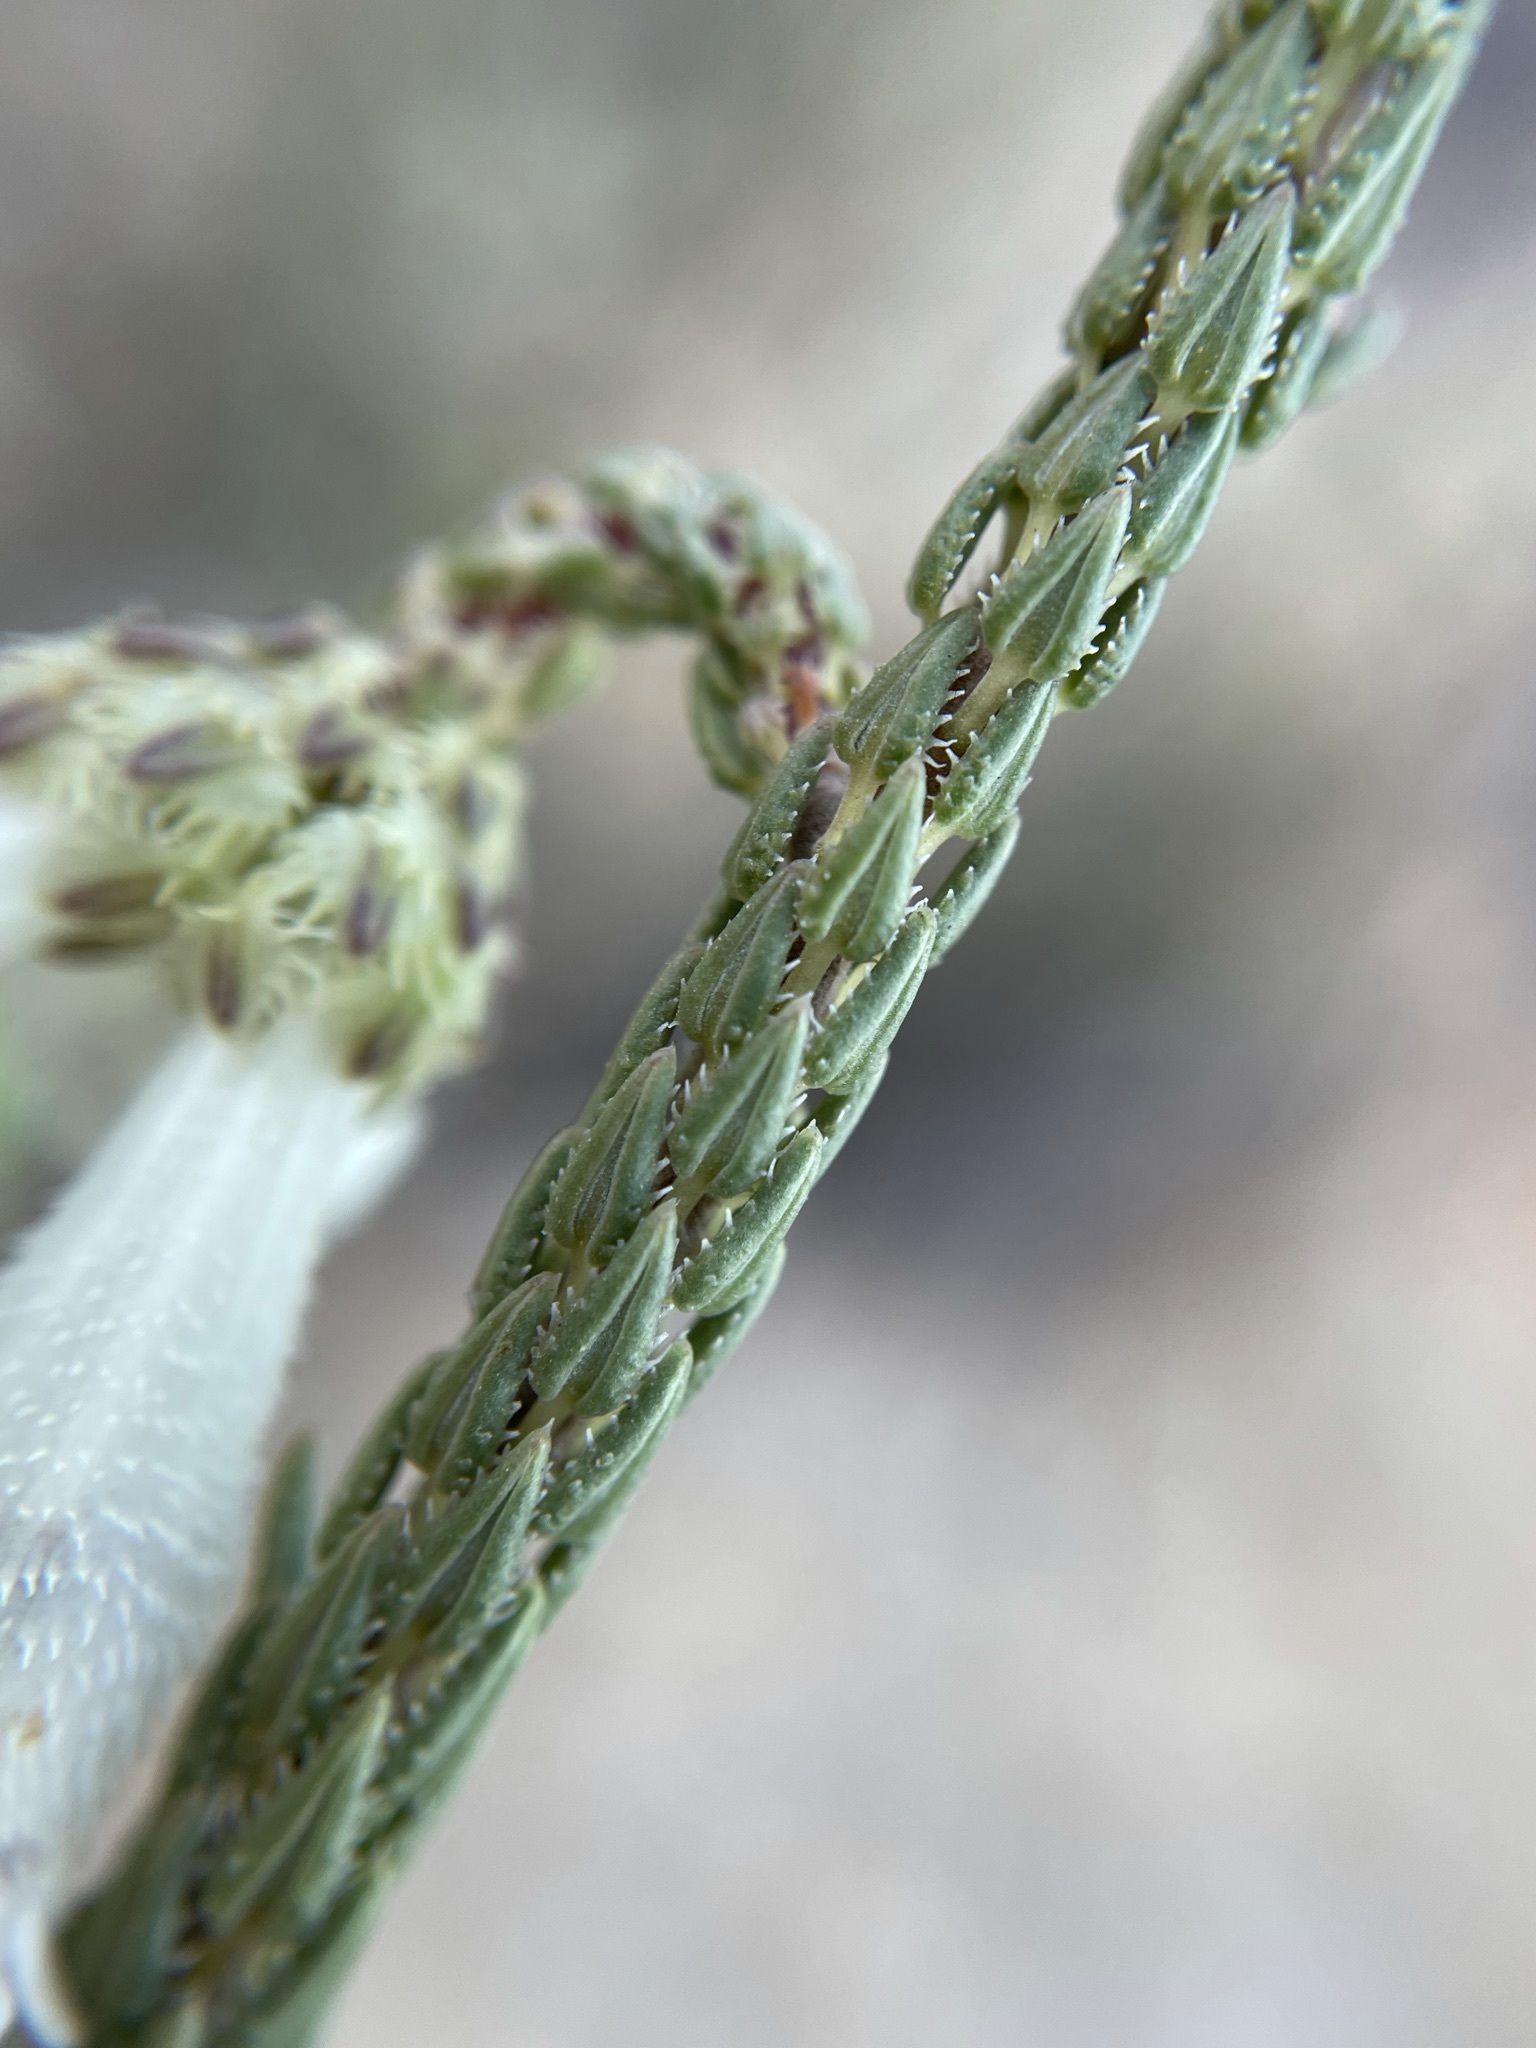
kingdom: Plantae
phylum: Tracheophyta
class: Magnoliopsida
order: Ericales
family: Ericaceae
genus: Erica
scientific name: Erica pectinifolia
